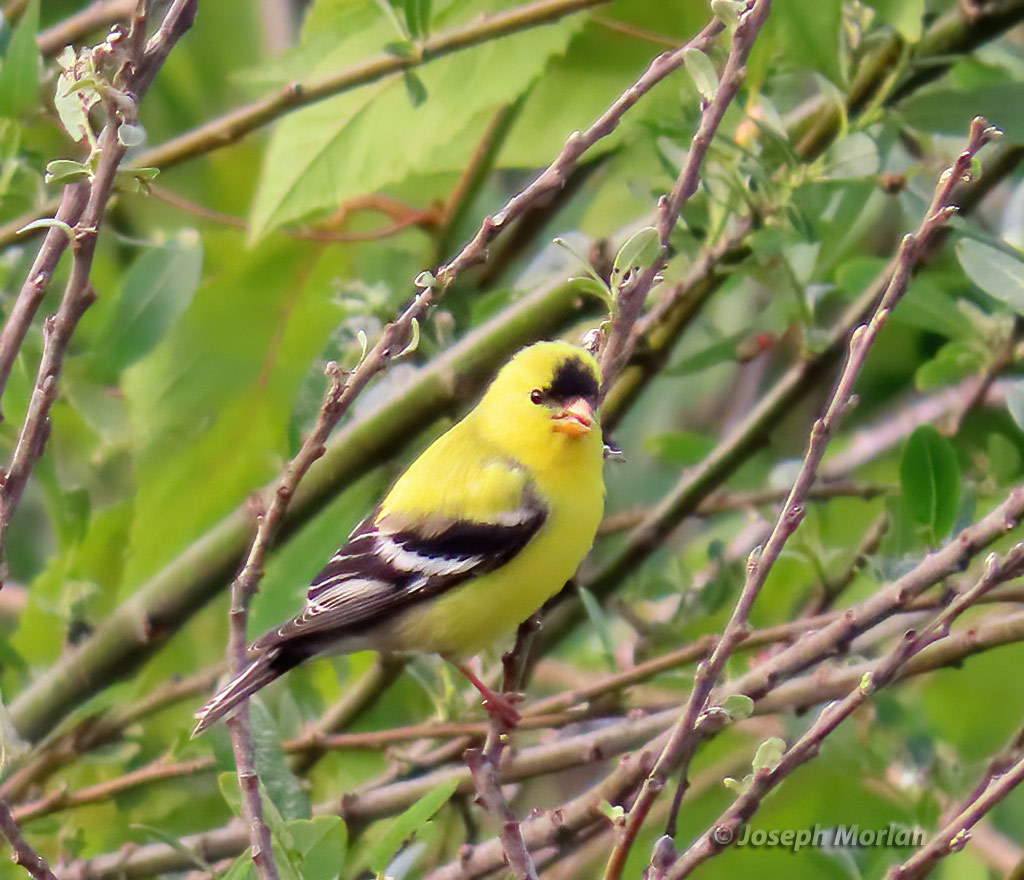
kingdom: Animalia
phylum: Chordata
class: Aves
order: Passeriformes
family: Fringillidae
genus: Spinus
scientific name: Spinus tristis
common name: American goldfinch
